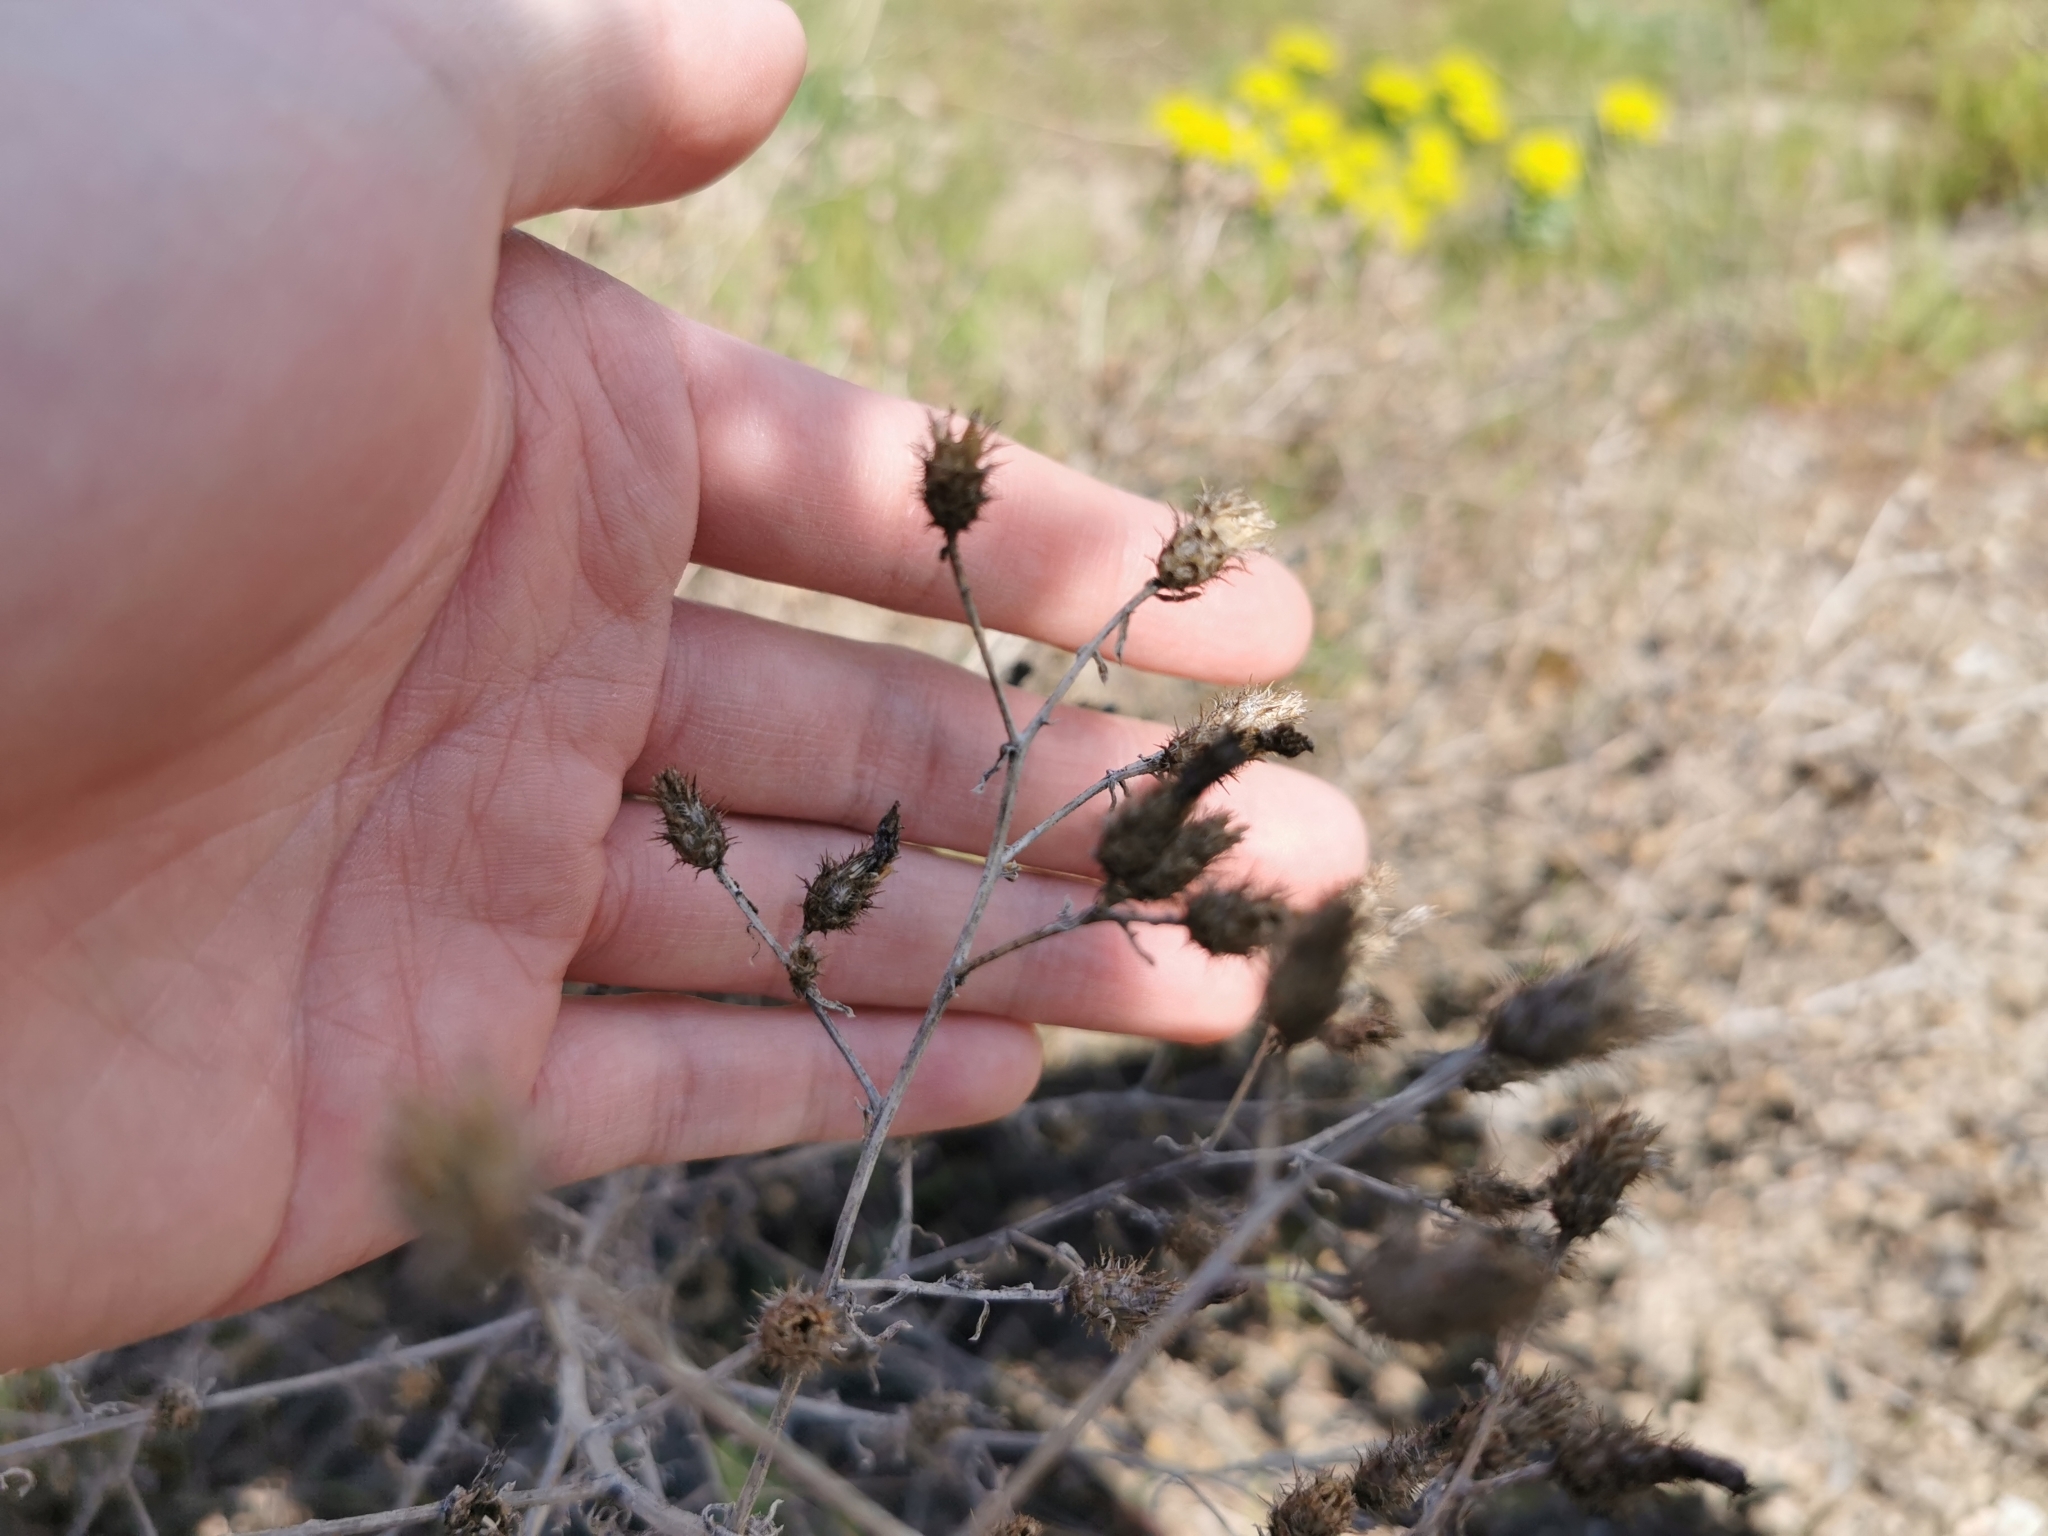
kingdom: Plantae
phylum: Tracheophyta
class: Magnoliopsida
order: Asterales
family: Asteraceae
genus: Centaurea
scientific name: Centaurea diffusa
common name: Diffuse knapweed
